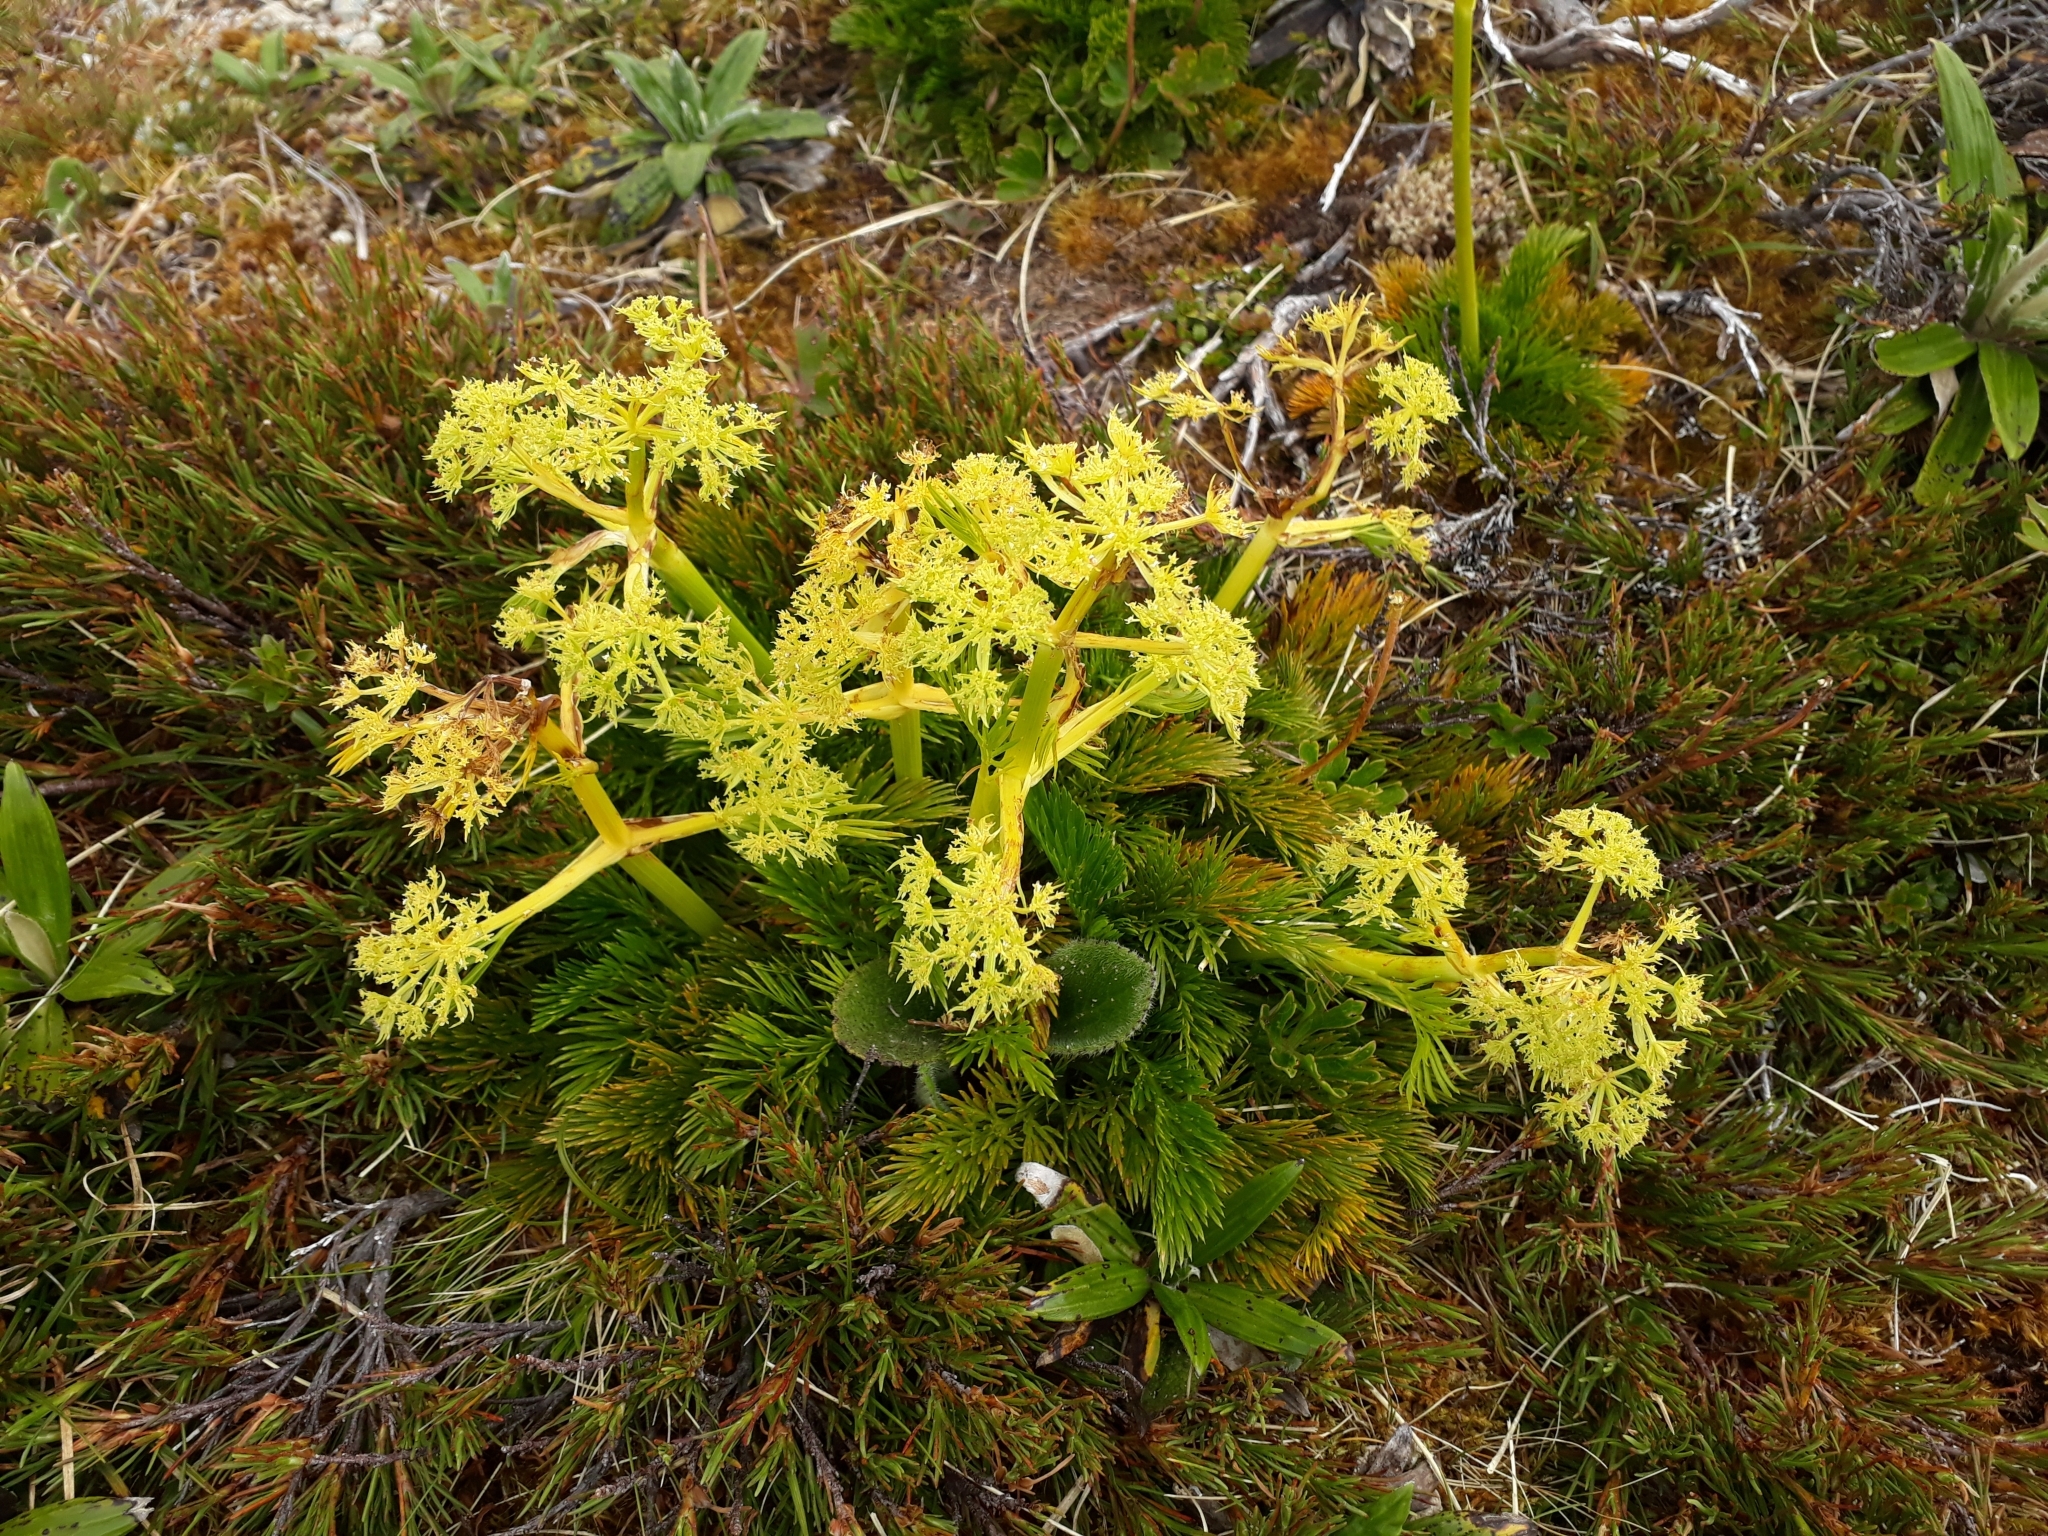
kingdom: Plantae
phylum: Tracheophyta
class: Magnoliopsida
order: Apiales
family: Apiaceae
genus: Aciphylla
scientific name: Aciphylla dissecta
